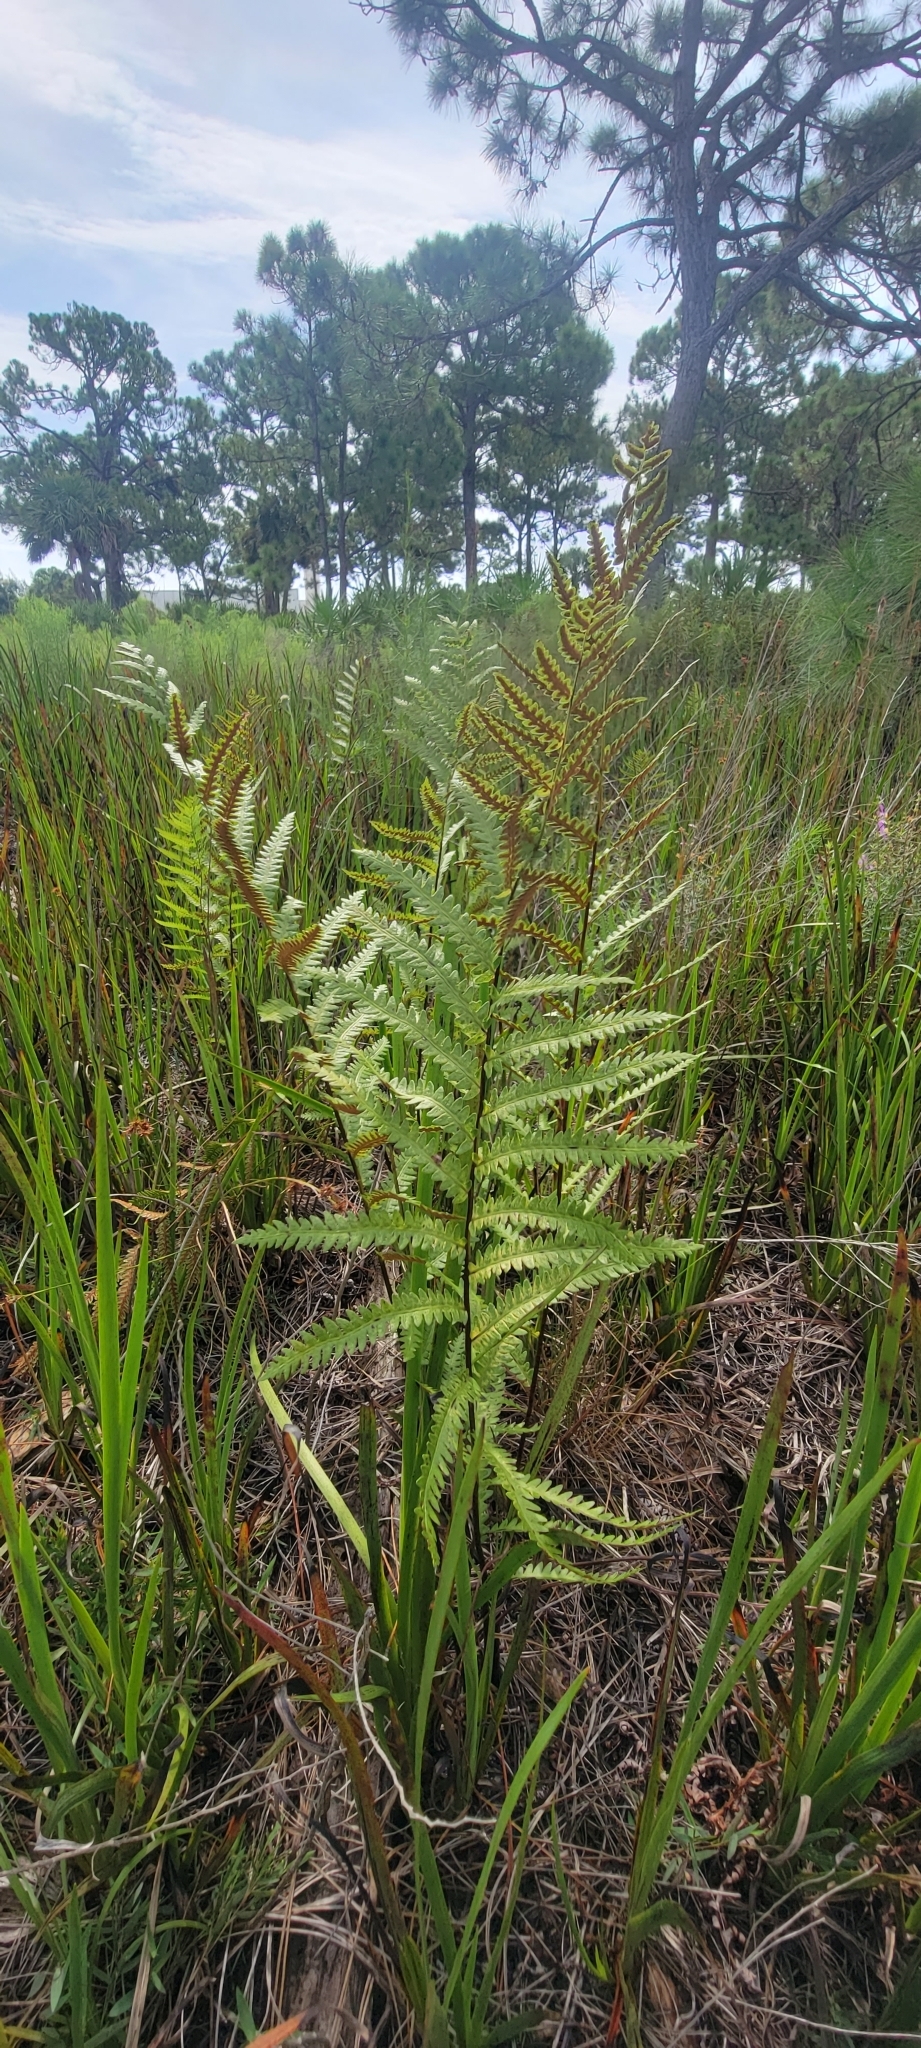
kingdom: Plantae
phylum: Tracheophyta
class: Polypodiopsida
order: Polypodiales
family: Blechnaceae
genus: Anchistea
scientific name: Anchistea virginica
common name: Virginia chain fern
